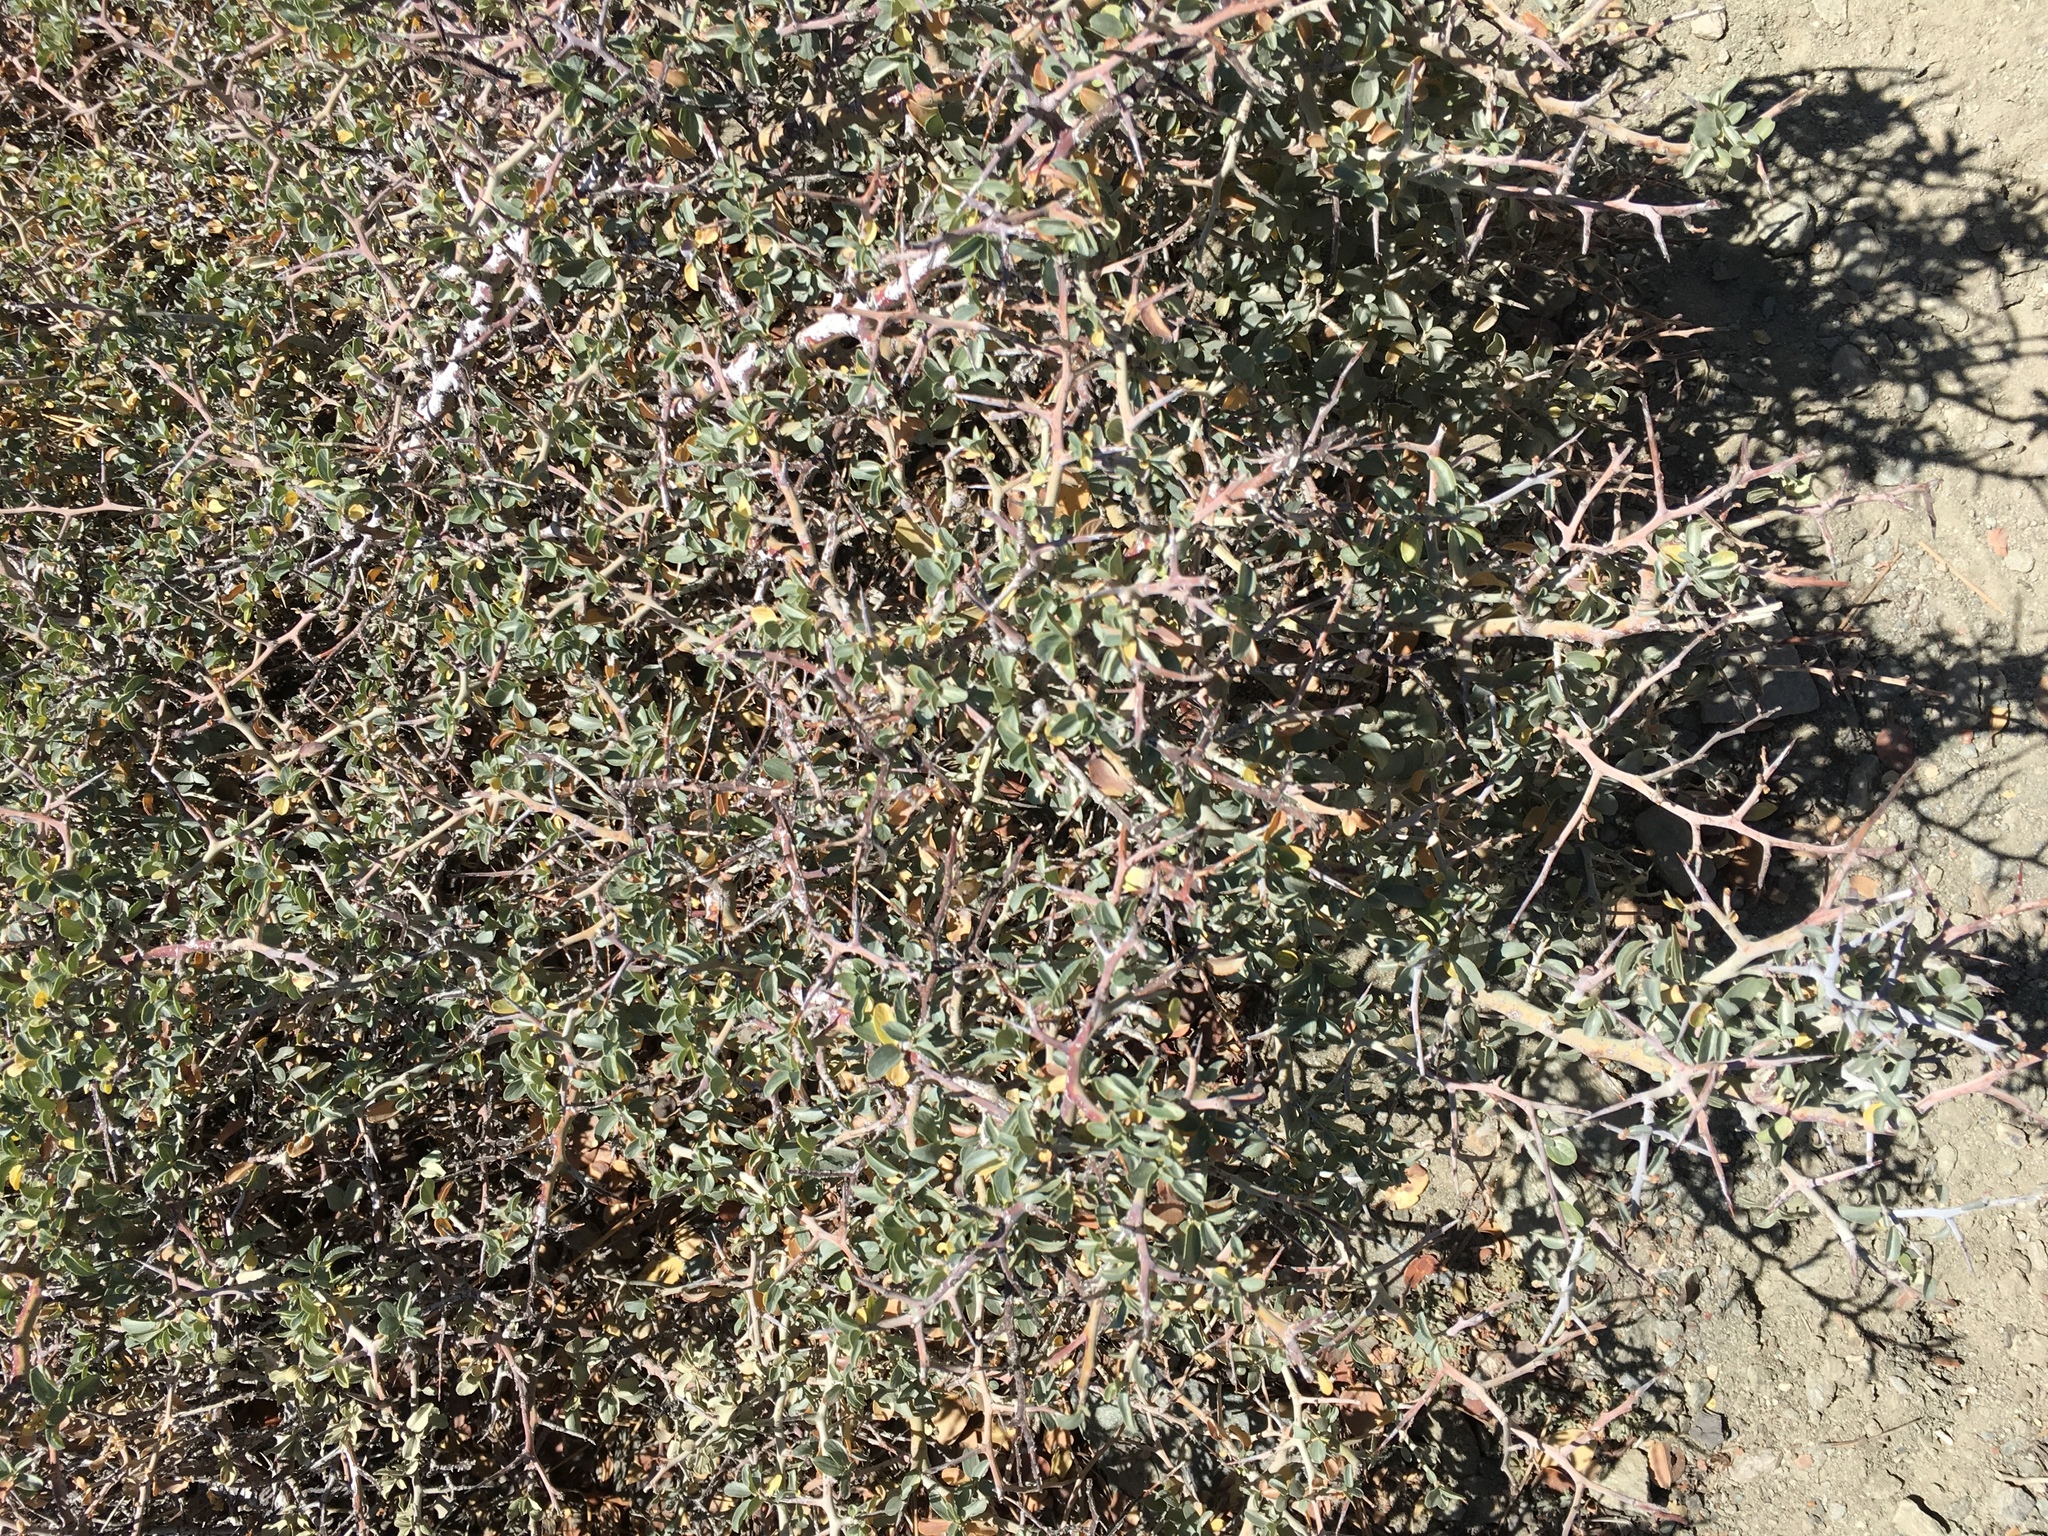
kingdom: Plantae
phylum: Tracheophyta
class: Magnoliopsida
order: Rosales
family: Rhamnaceae
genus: Ceanothus
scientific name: Ceanothus cordulatus
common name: Mountain whitethorn
